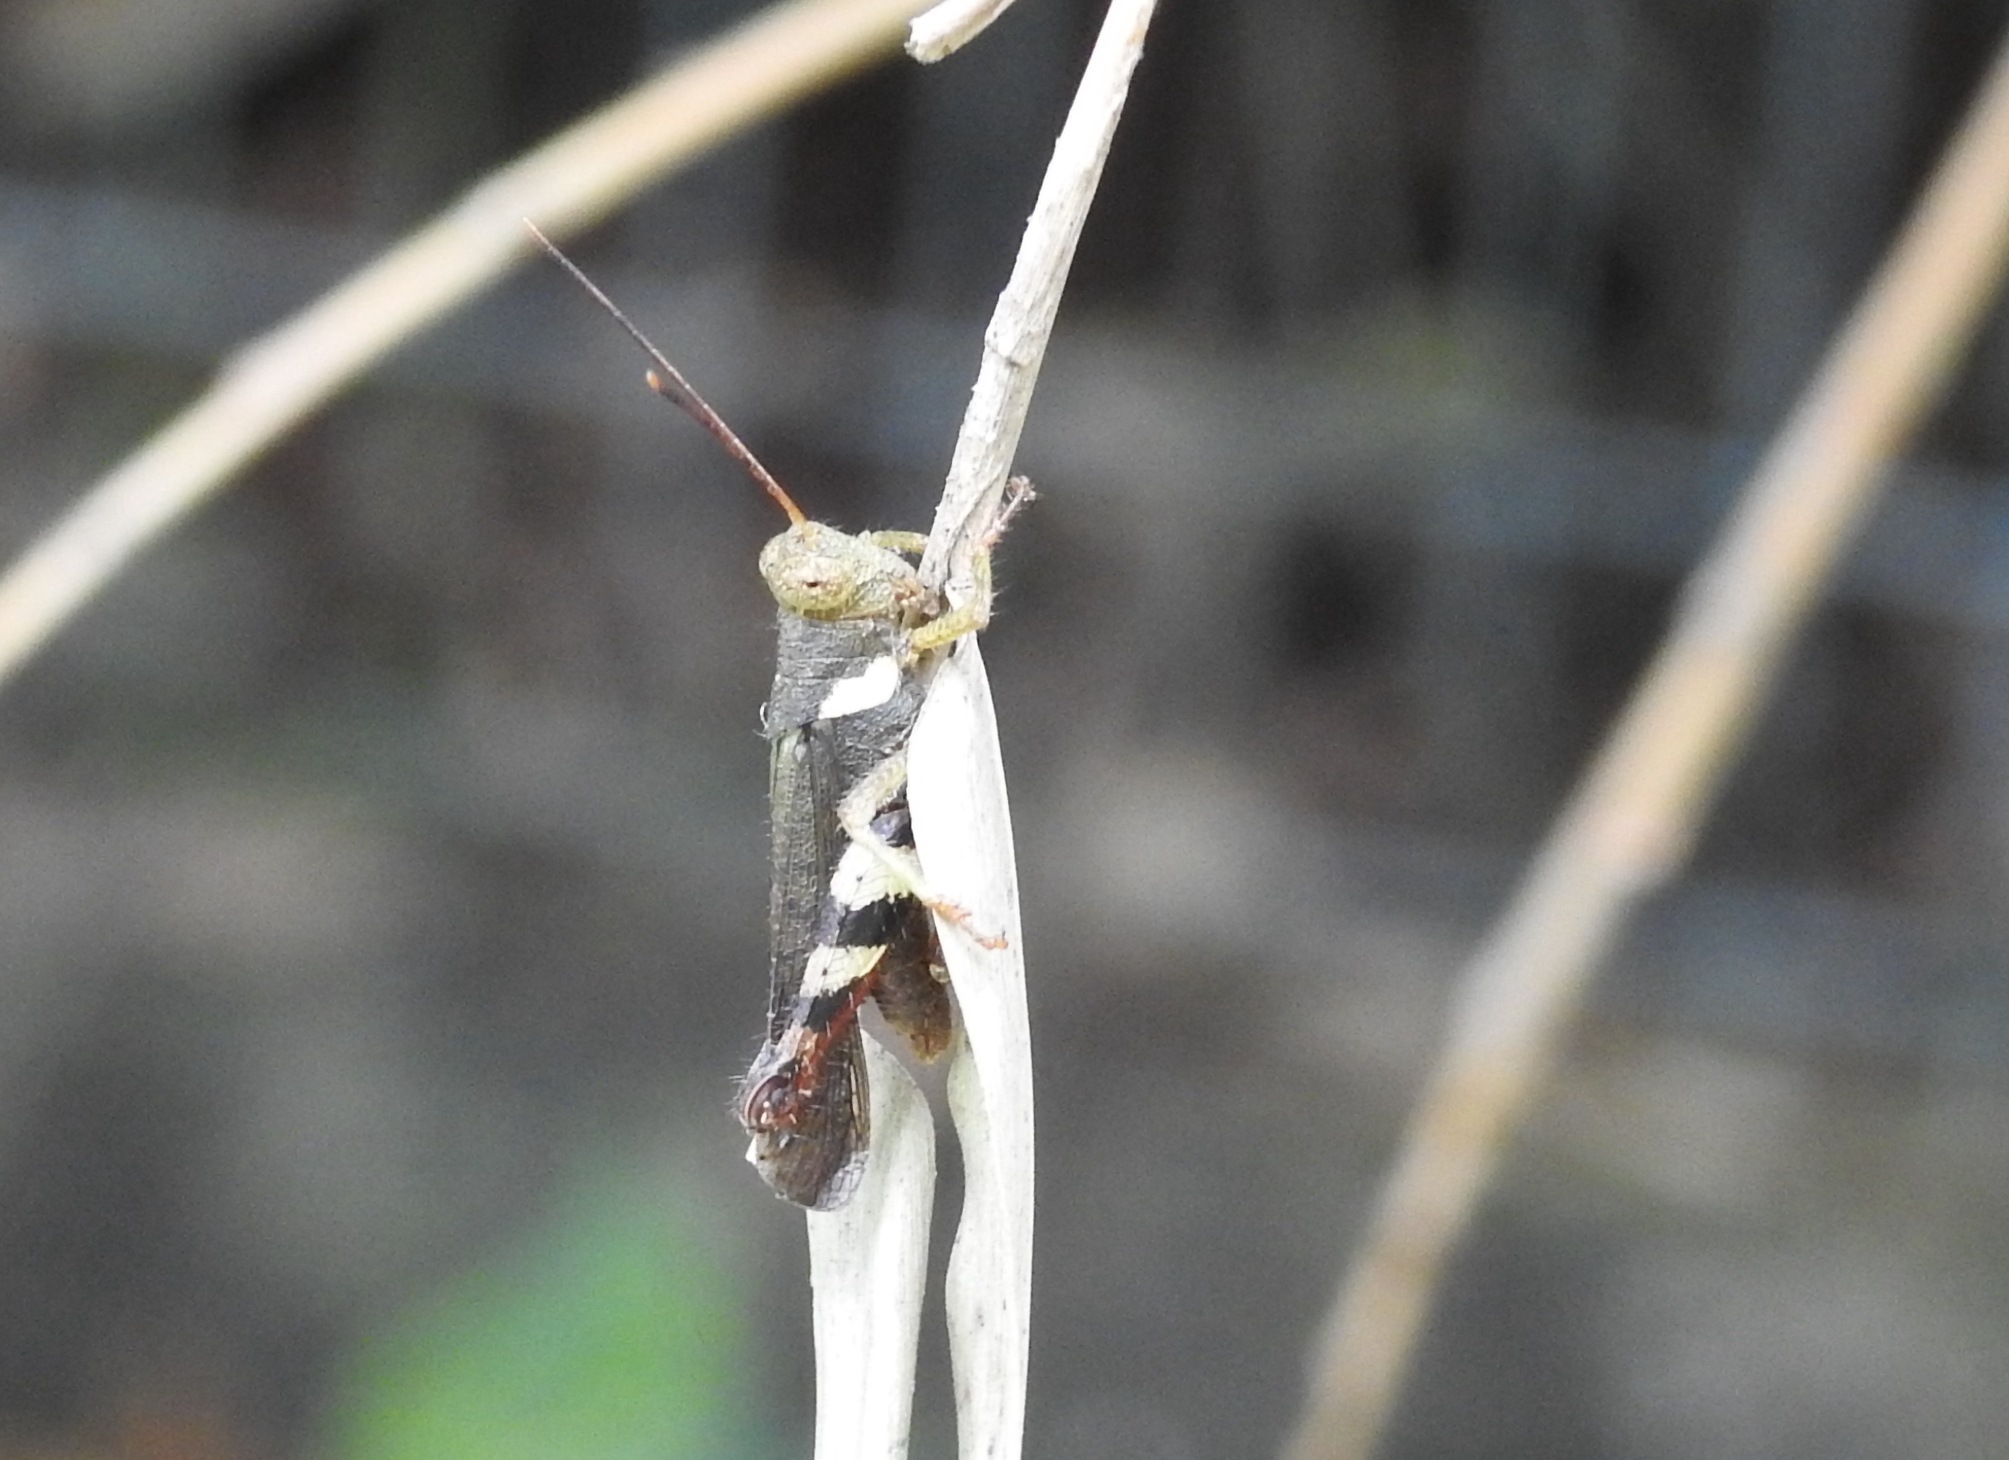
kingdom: Animalia
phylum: Arthropoda
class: Insecta
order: Orthoptera
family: Acrididae
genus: Apalacris
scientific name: Apalacris varicornis
